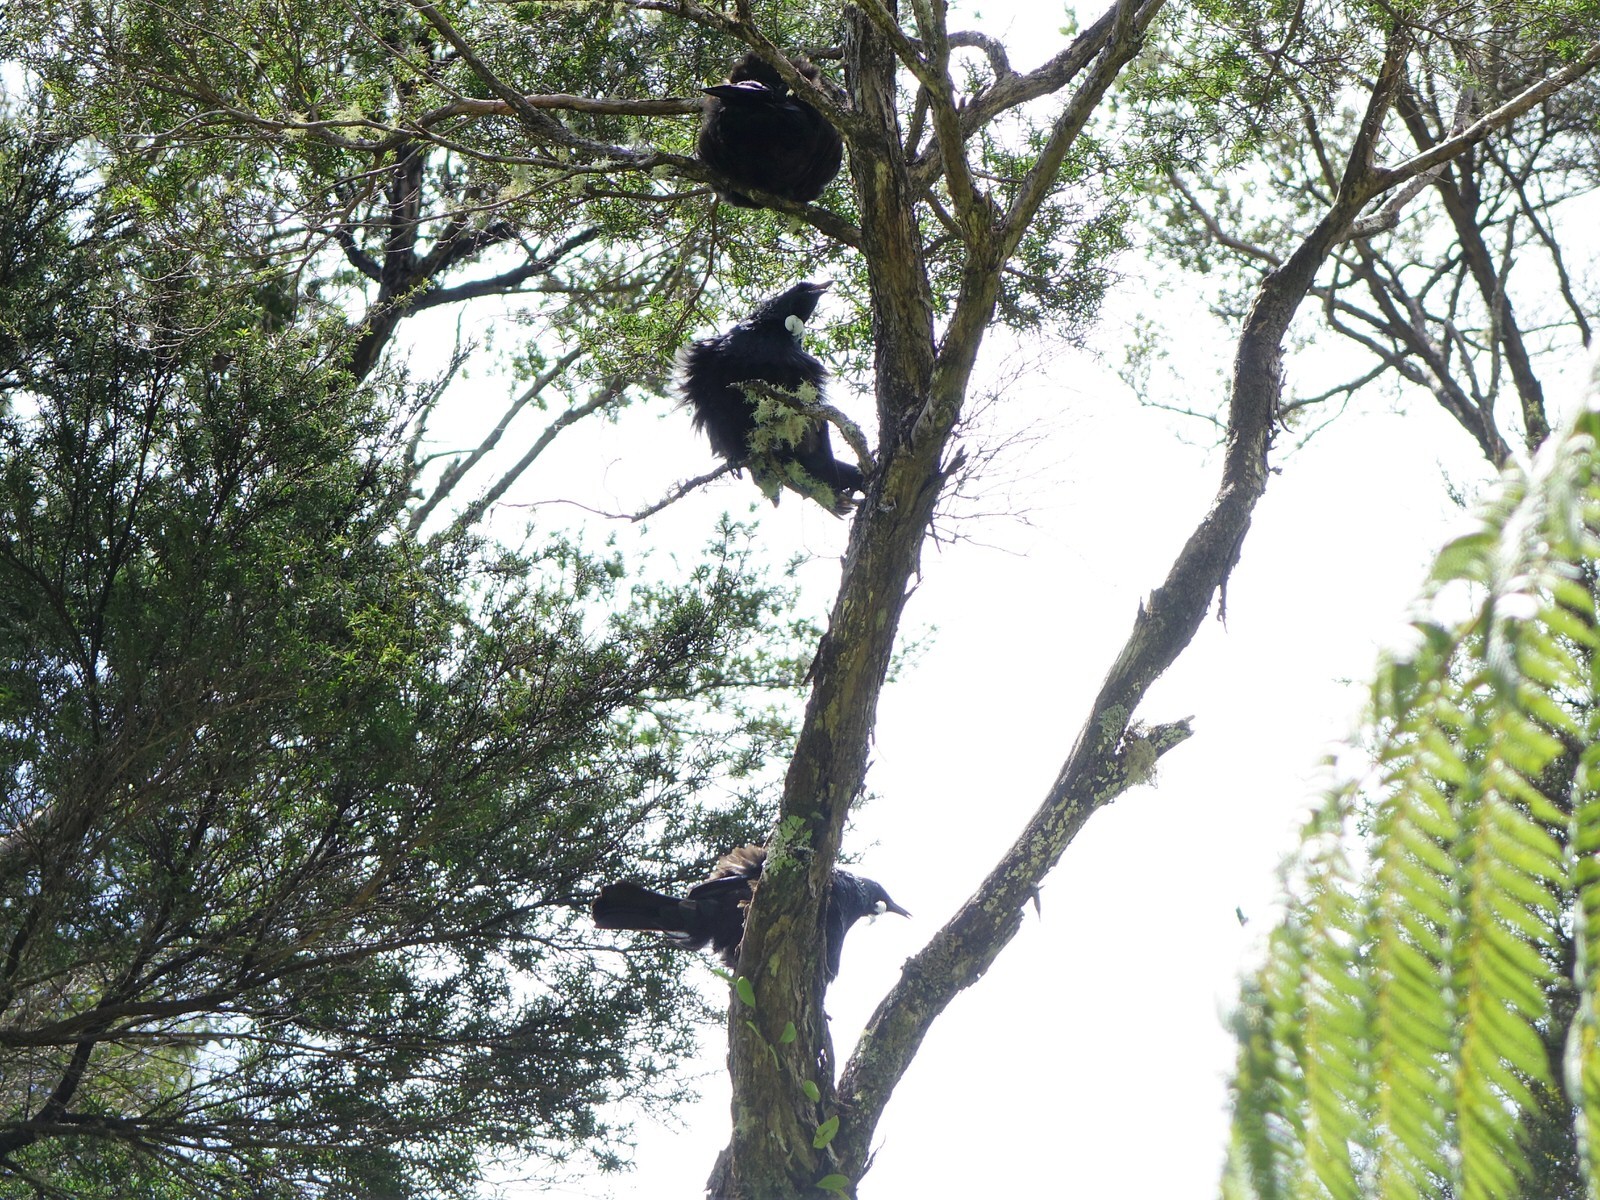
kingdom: Animalia
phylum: Chordata
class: Aves
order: Passeriformes
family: Meliphagidae
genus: Prosthemadera
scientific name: Prosthemadera novaeseelandiae
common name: Tui
